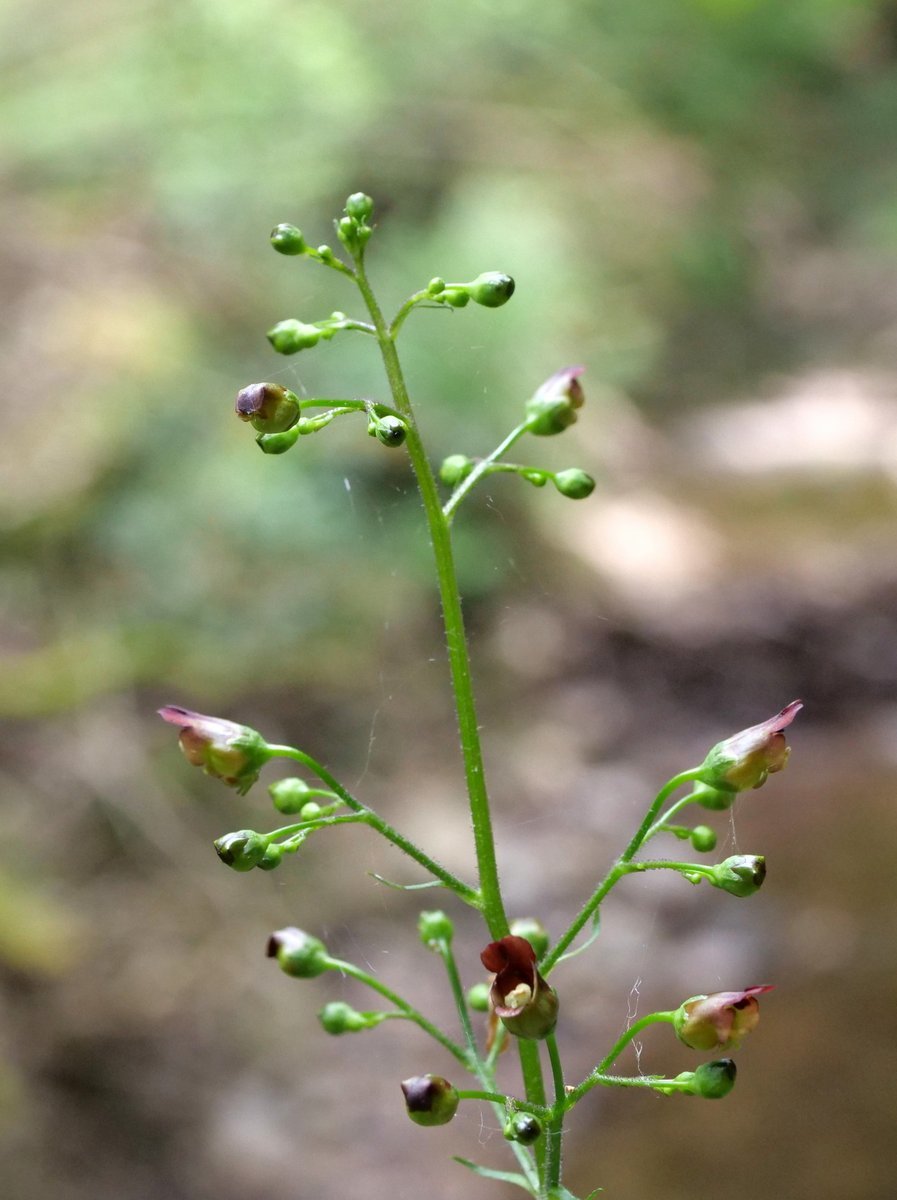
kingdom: Plantae
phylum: Tracheophyta
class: Magnoliopsida
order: Lamiales
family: Scrophulariaceae
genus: Scrophularia
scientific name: Scrophularia nodosa
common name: Common figwort
